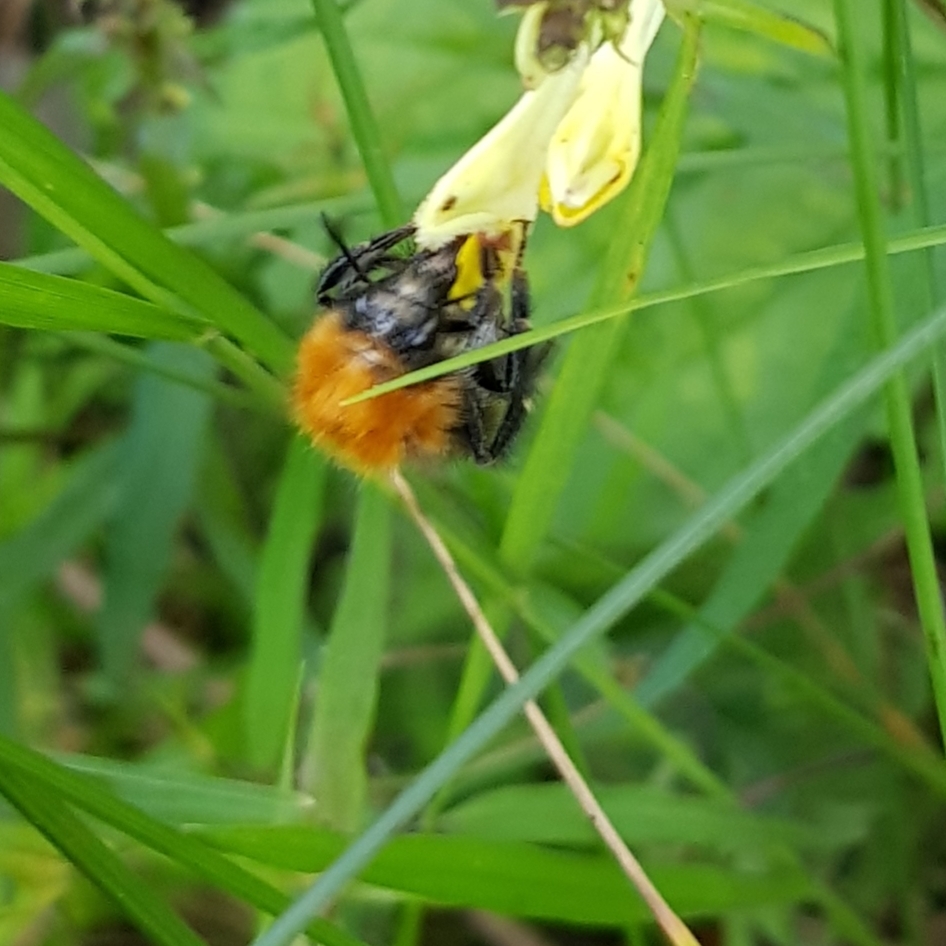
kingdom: Animalia
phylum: Arthropoda
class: Insecta
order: Hymenoptera
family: Apidae
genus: Bombus
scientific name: Bombus pascuorum
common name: Common carder bee
